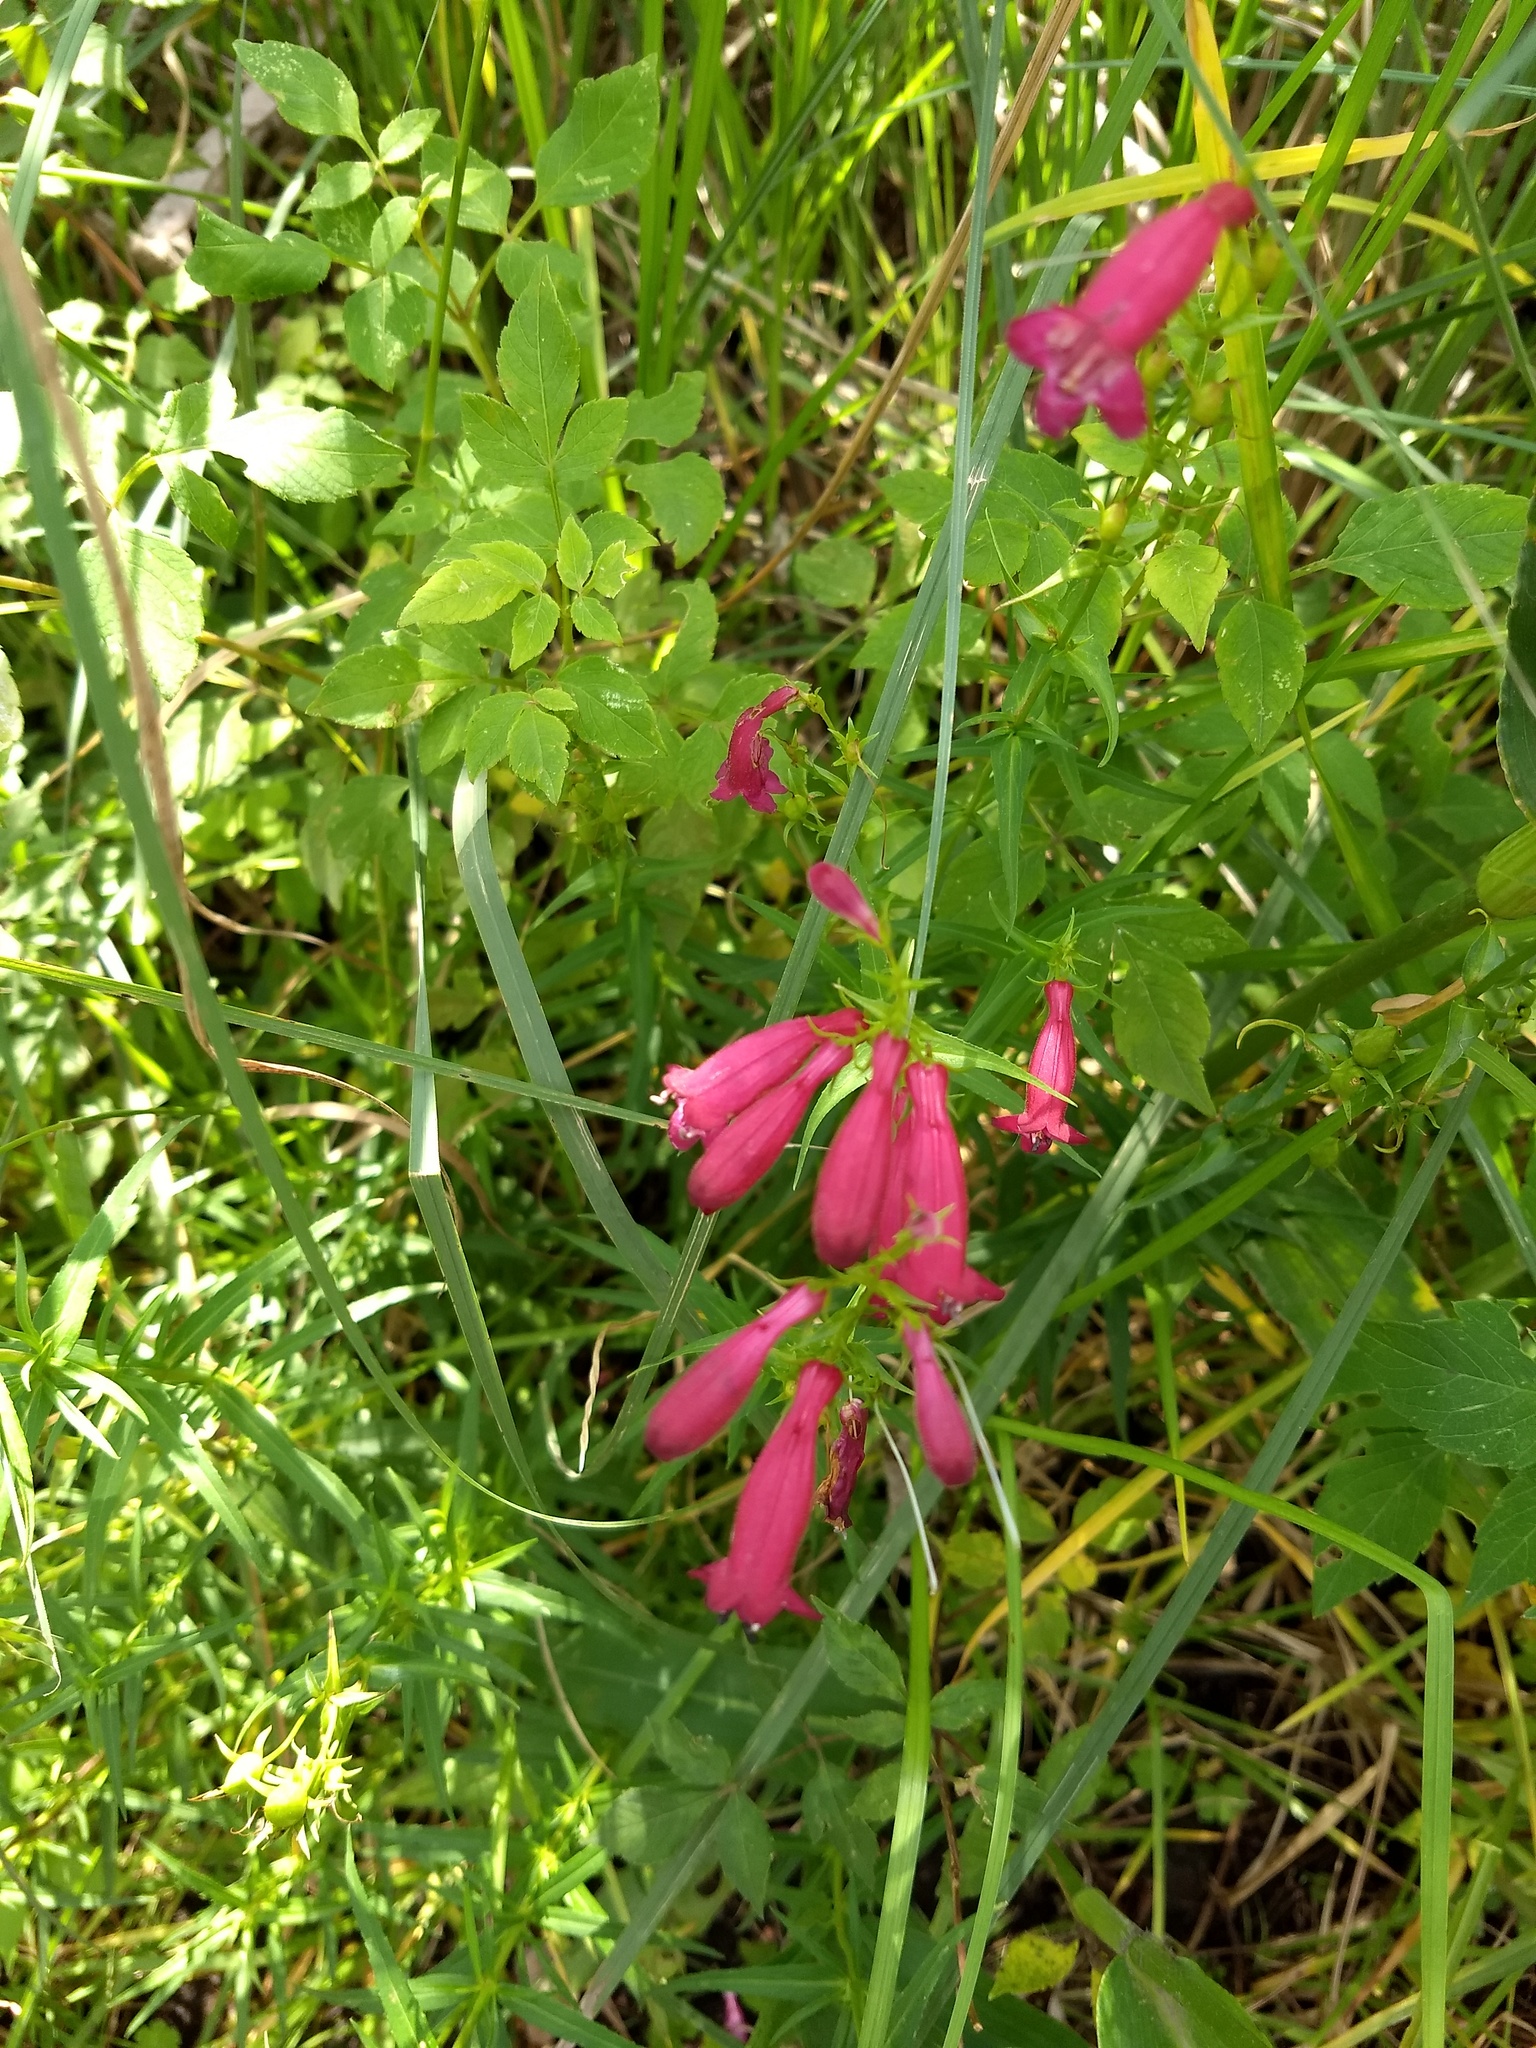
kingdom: Plantae
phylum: Tracheophyta
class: Magnoliopsida
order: Lamiales
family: Plantaginaceae
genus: Penstemon
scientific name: Penstemon roseus
